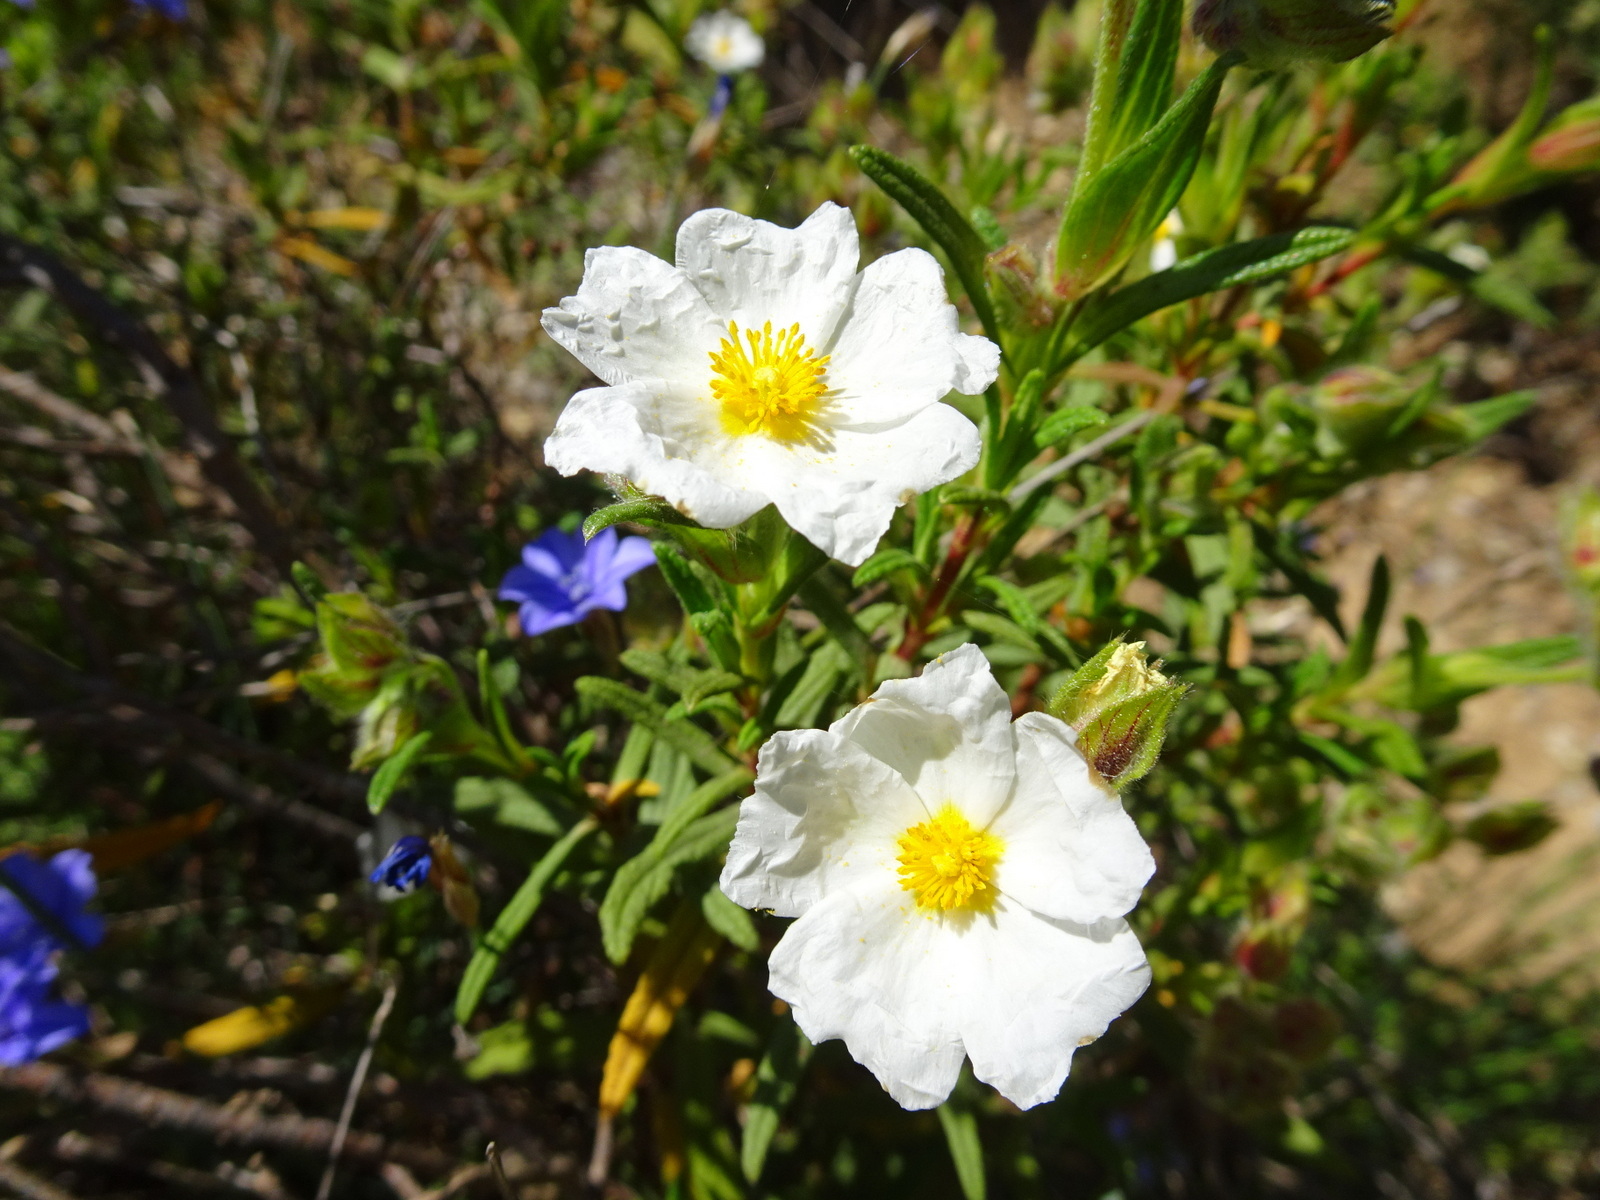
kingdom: Plantae
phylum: Tracheophyta
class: Magnoliopsida
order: Malvales
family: Cistaceae
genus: Cistus
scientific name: Cistus monspeliensis
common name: Montpelier cistus
